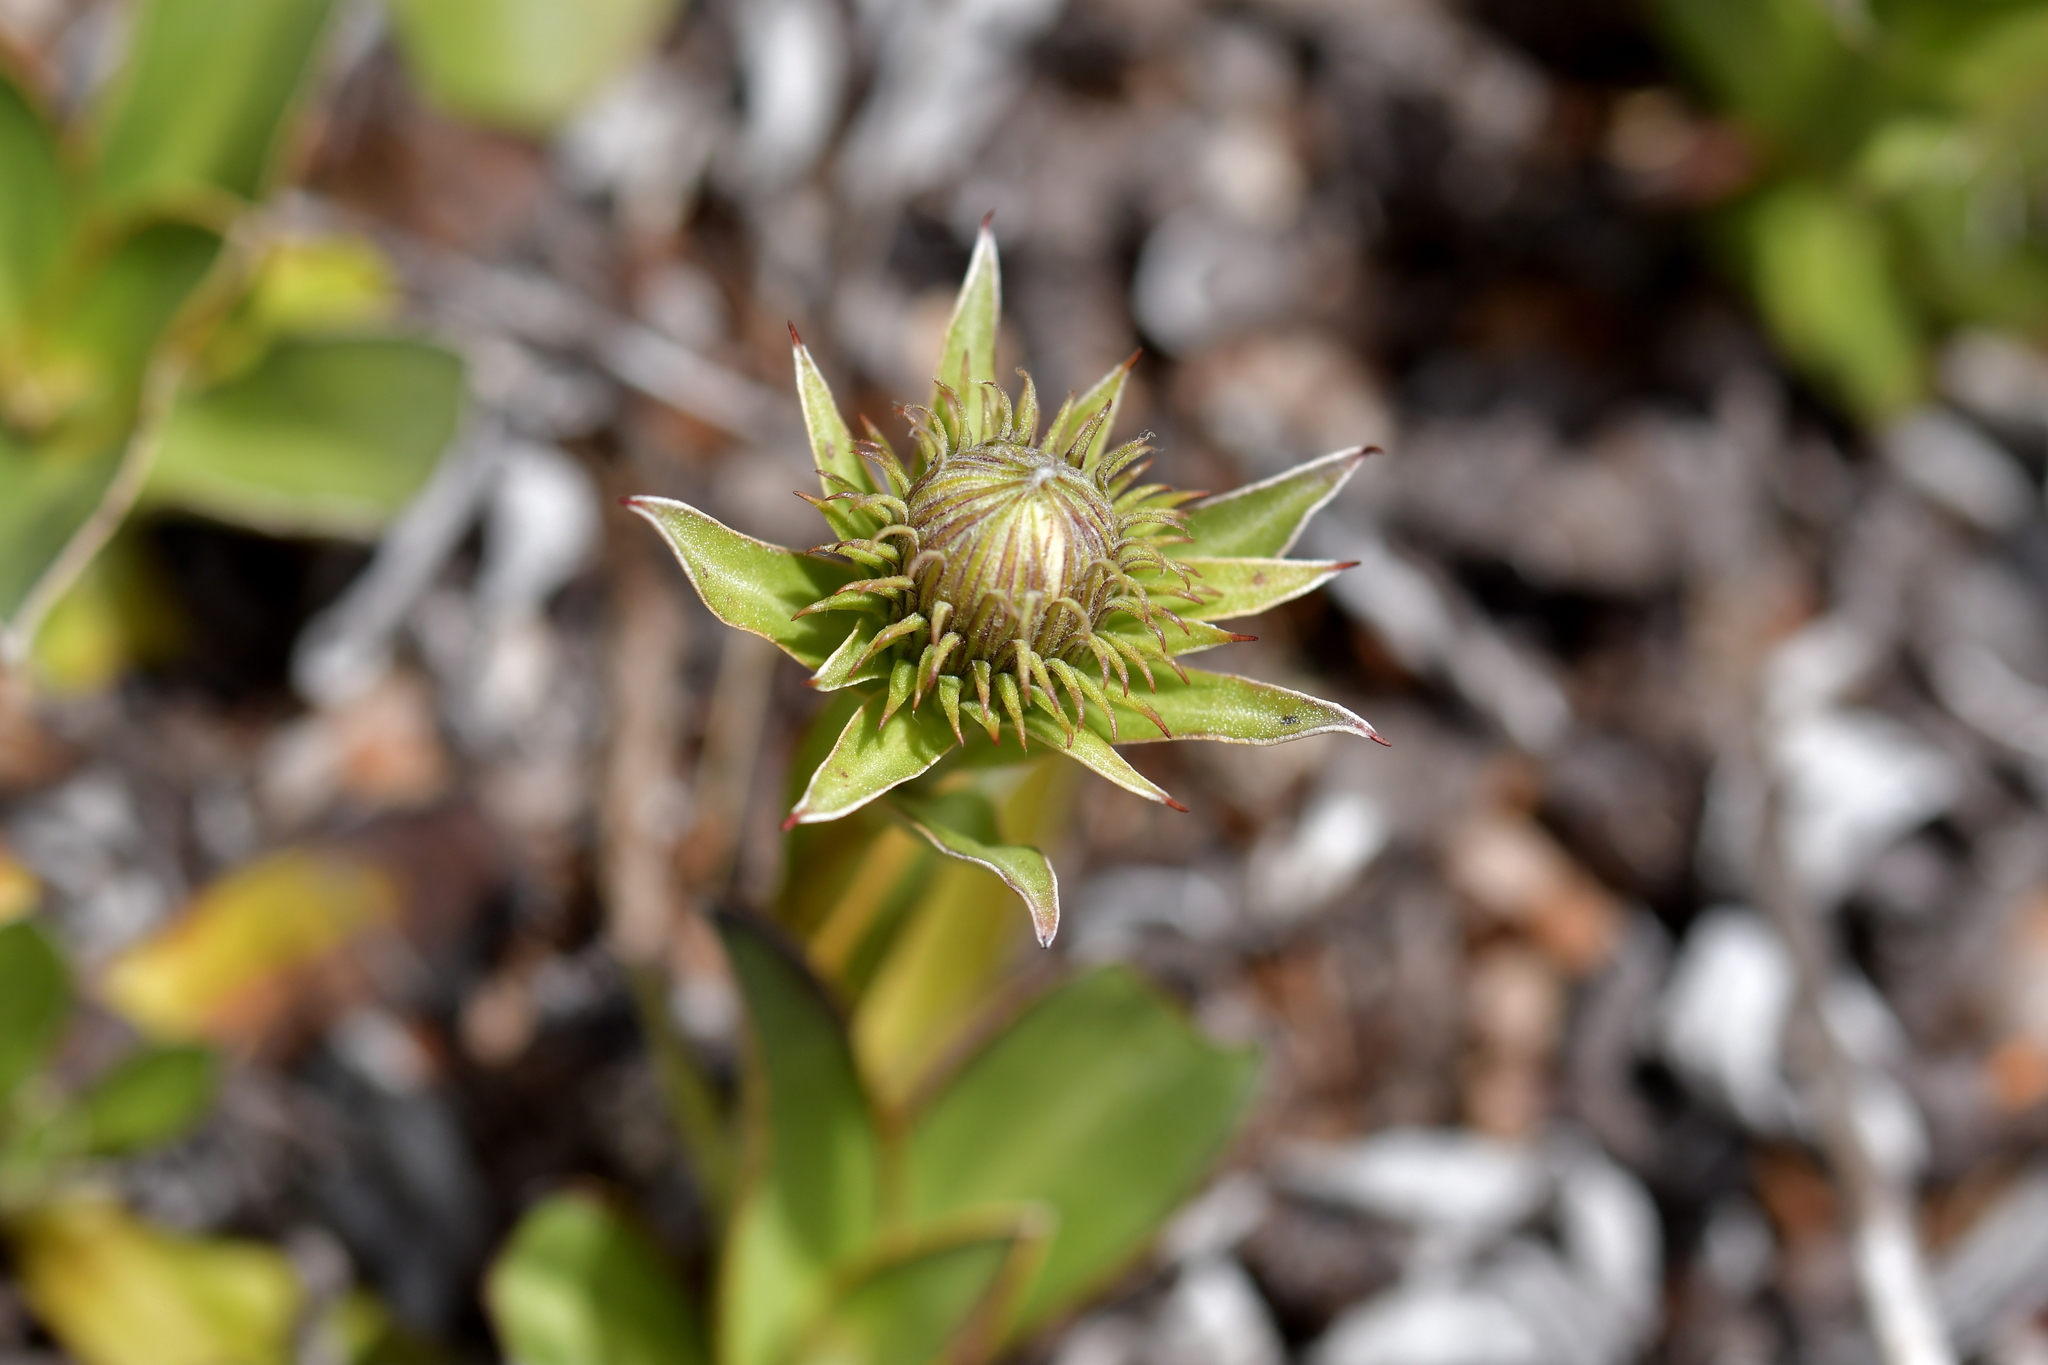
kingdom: Plantae
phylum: Tracheophyta
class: Magnoliopsida
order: Asterales
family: Asteraceae
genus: Celmisia
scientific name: Celmisia dallii
